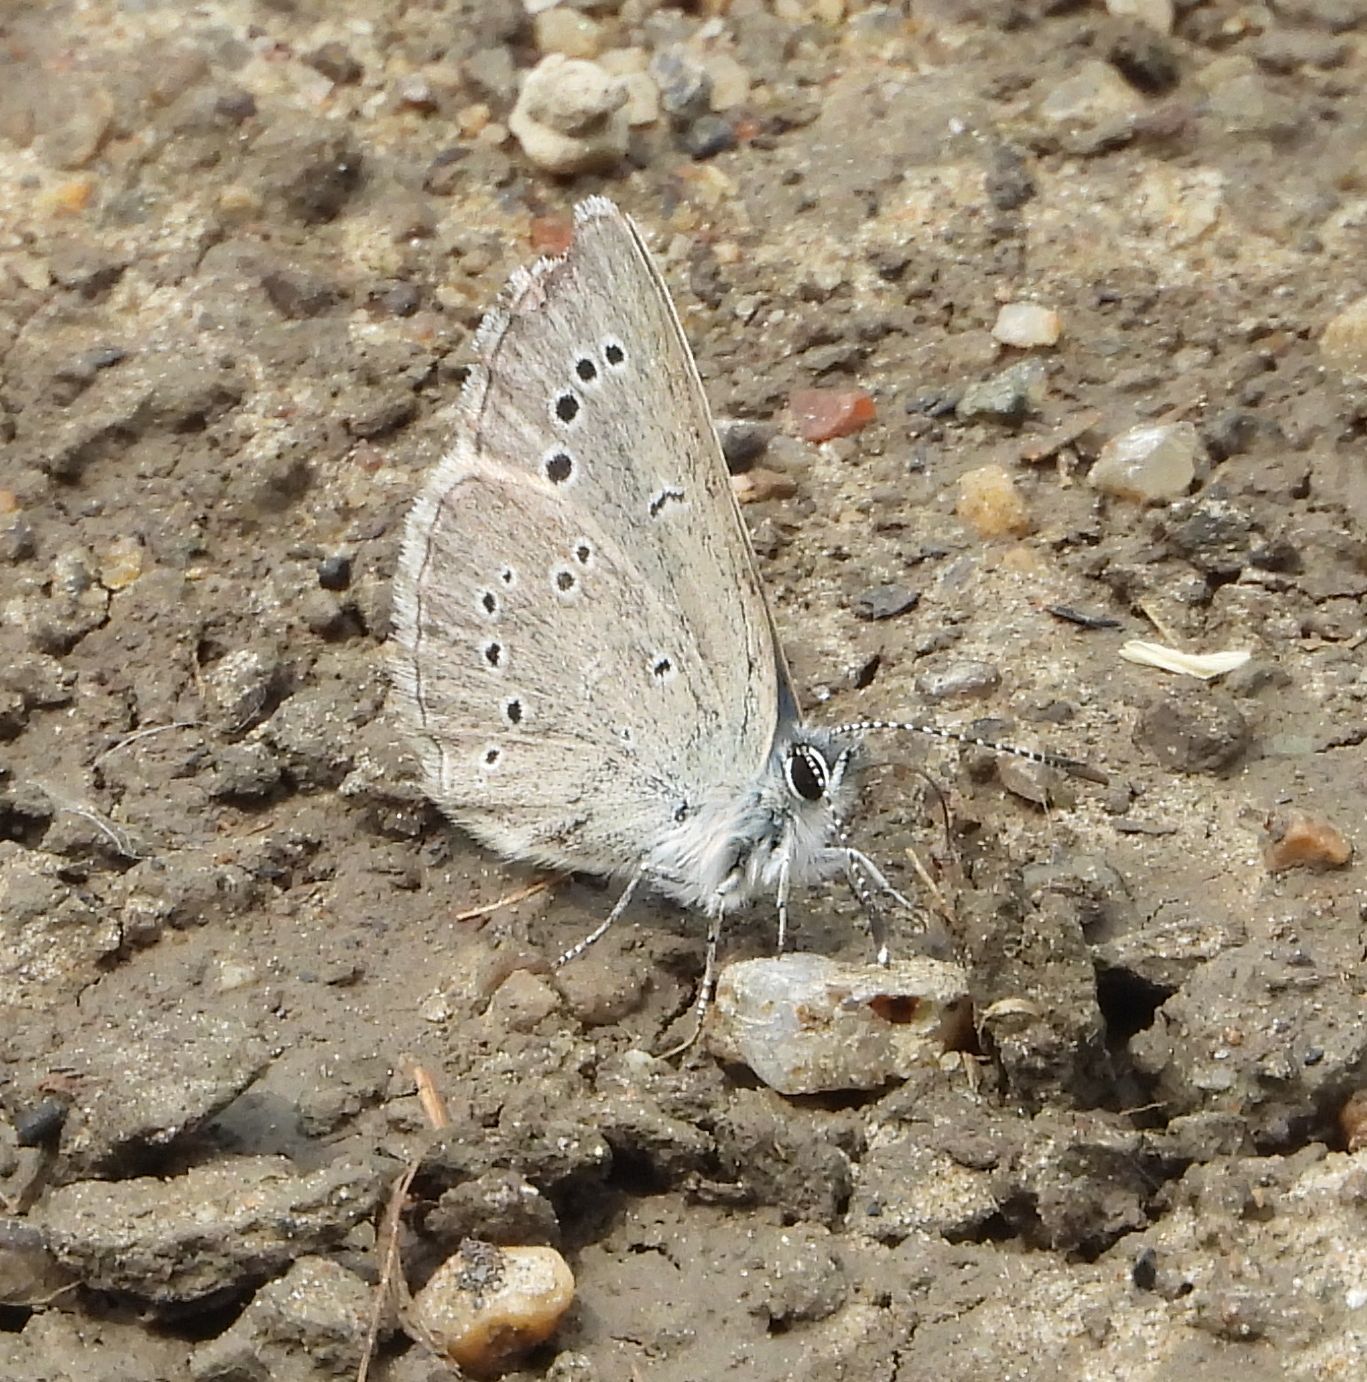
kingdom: Animalia
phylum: Arthropoda
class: Insecta
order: Lepidoptera
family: Lycaenidae
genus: Glaucopsyche
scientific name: Glaucopsyche lygdamus
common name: Silvery blue
